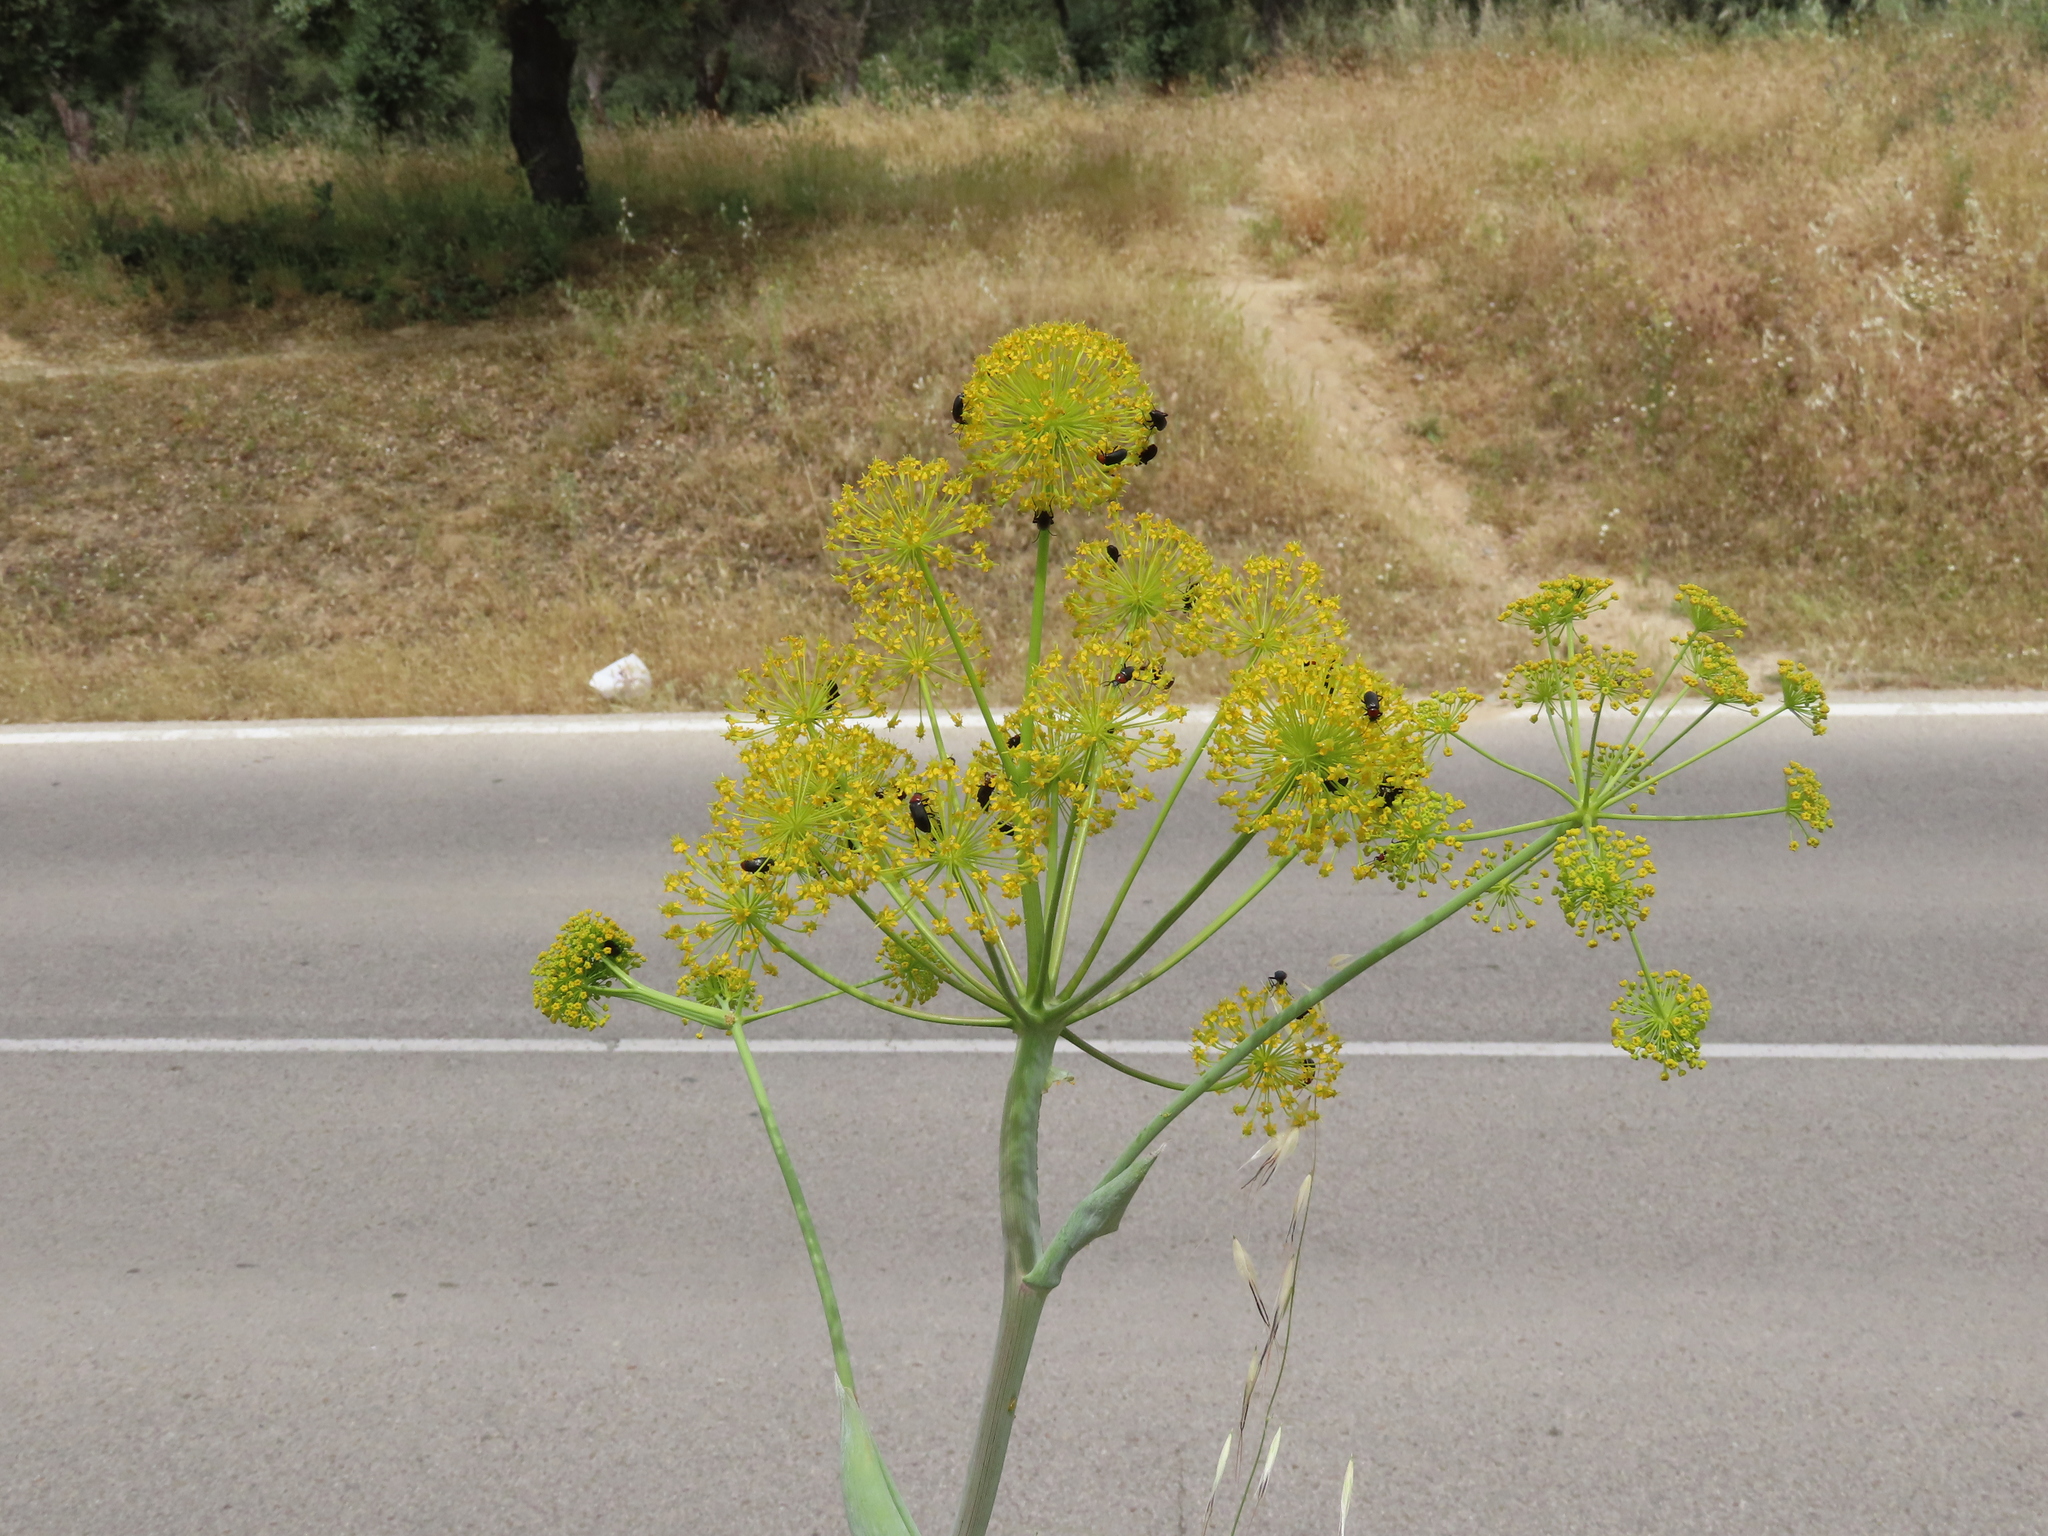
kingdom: Plantae
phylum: Tracheophyta
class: Magnoliopsida
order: Apiales
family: Apiaceae
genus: Thapsia
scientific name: Thapsia villosa
